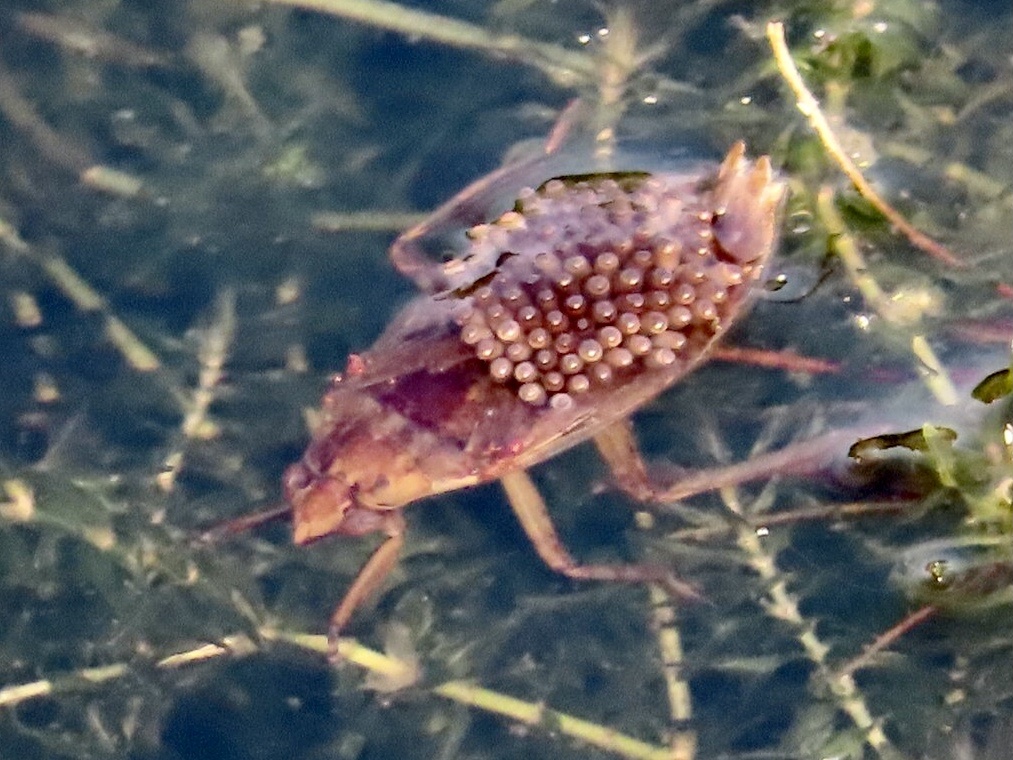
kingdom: Animalia
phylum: Arthropoda
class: Insecta
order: Hemiptera
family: Belostomatidae
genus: Belostoma
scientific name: Belostoma
